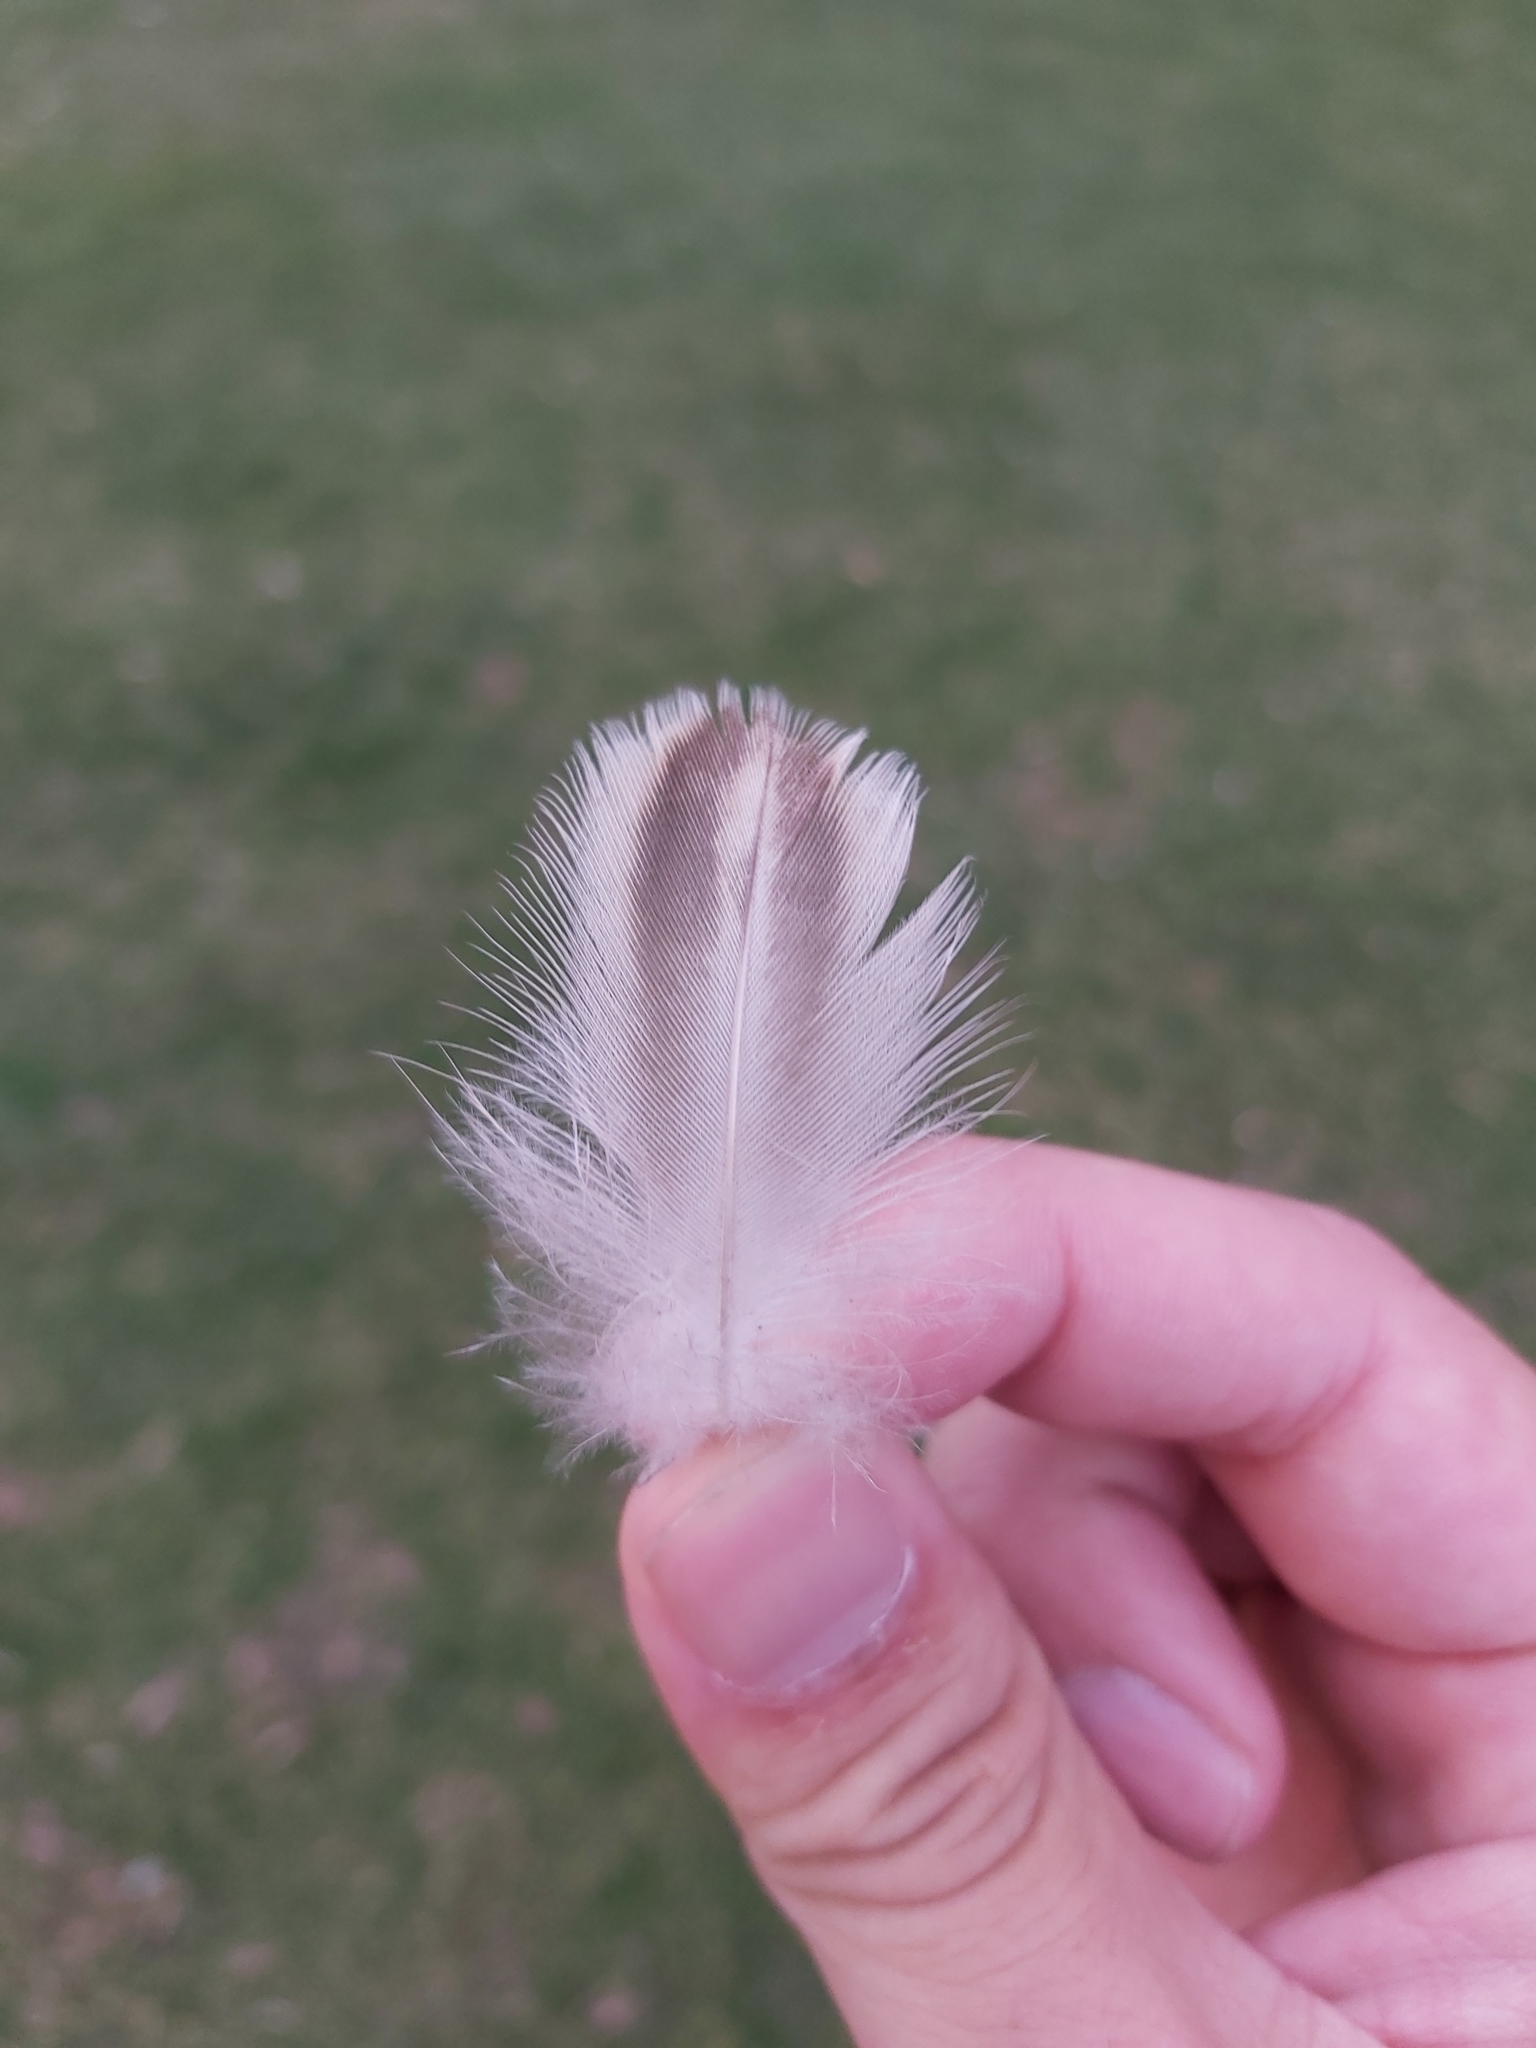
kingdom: Animalia
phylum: Chordata
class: Aves
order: Anseriformes
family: Anatidae
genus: Anas
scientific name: Anas platyrhynchos
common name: Mallard
